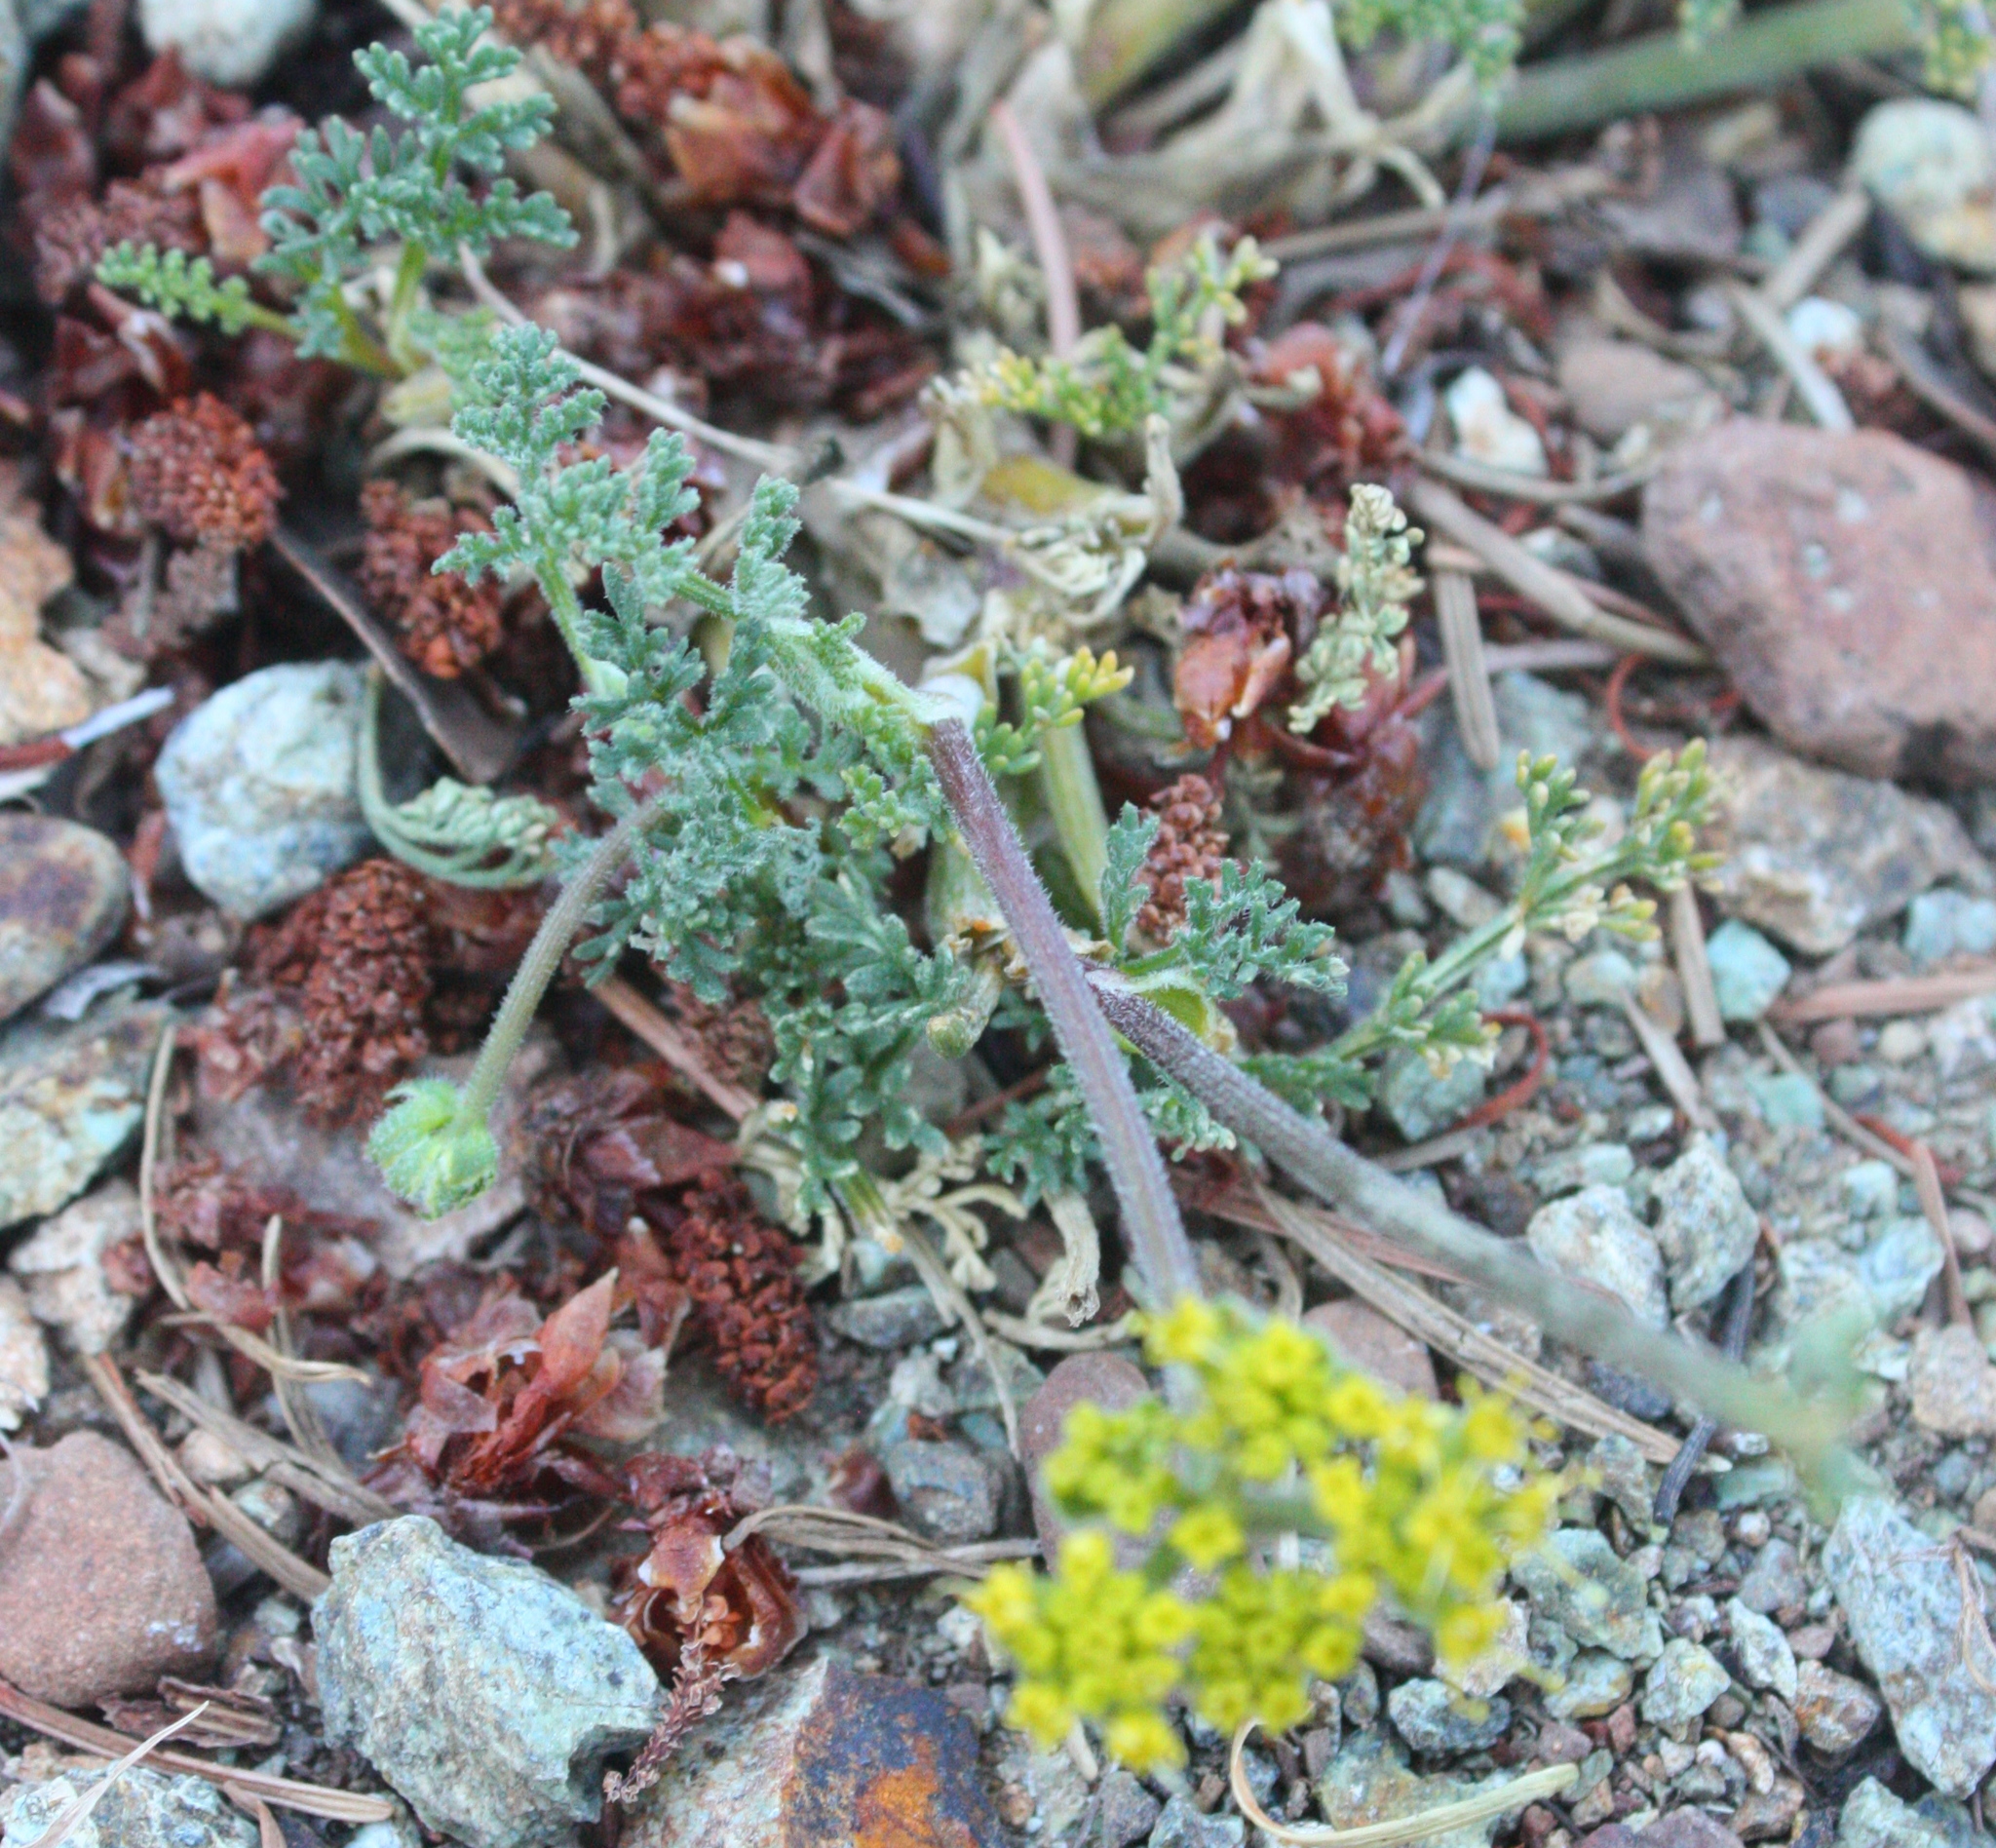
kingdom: Plantae
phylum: Tracheophyta
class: Magnoliopsida
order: Apiales
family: Apiaceae
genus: Lomatium
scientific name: Lomatium utriculatum
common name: Fine-leaf desert-parsley
